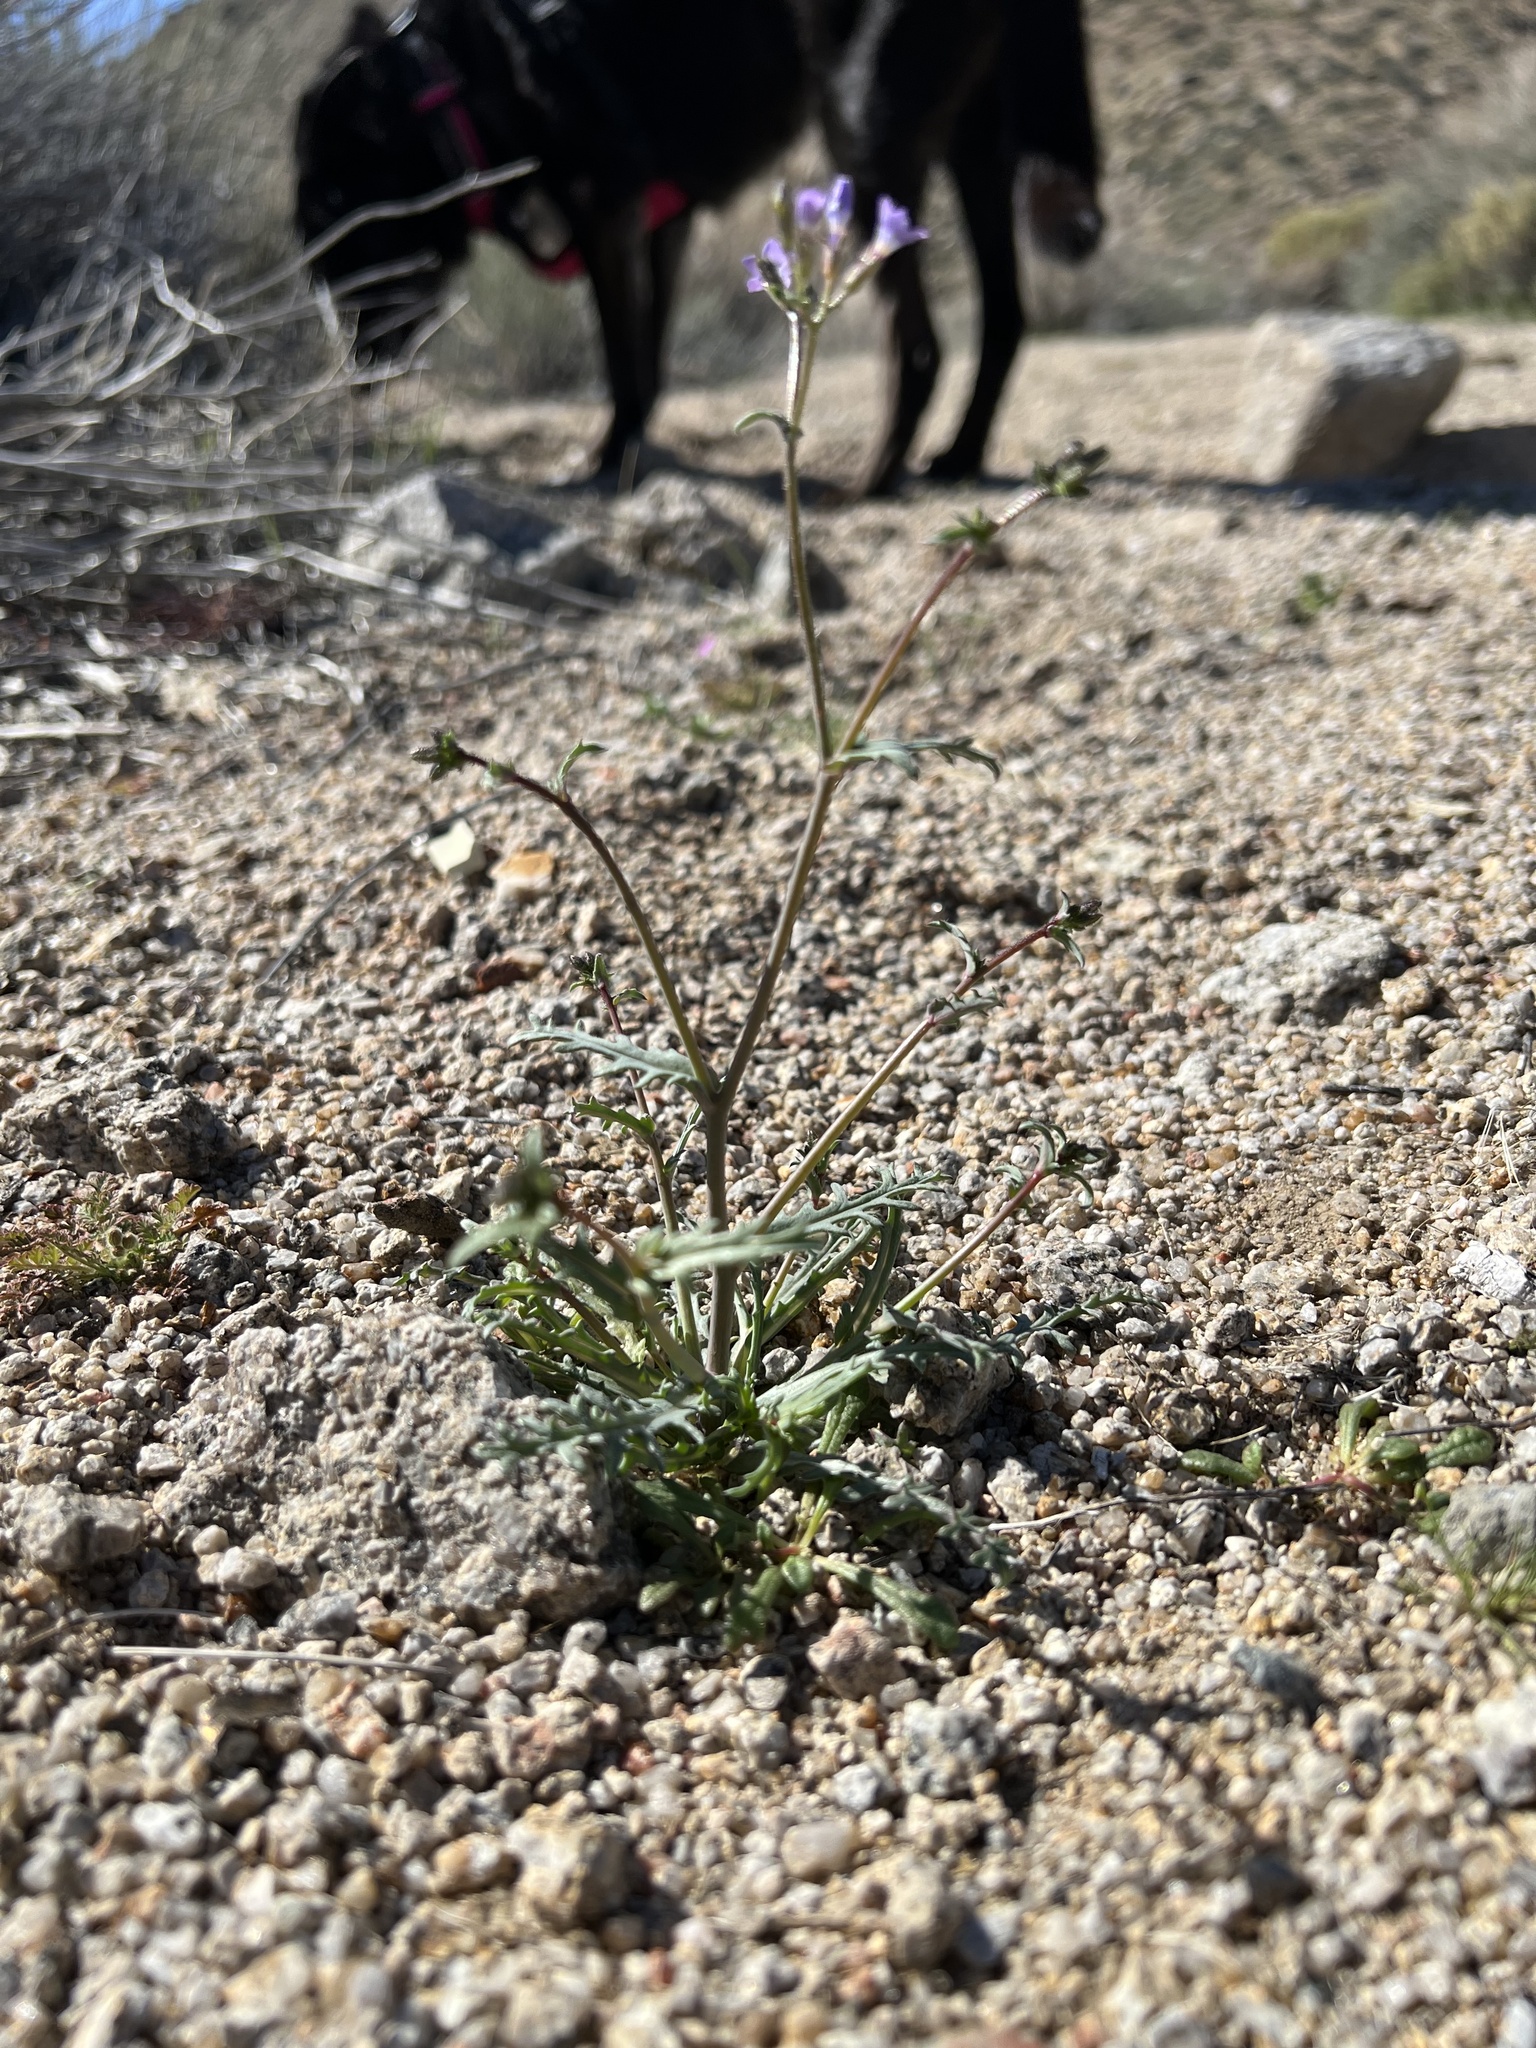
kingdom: Plantae
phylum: Tracheophyta
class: Magnoliopsida
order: Ericales
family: Polemoniaceae
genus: Gilia
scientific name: Gilia sinuata
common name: Rosy gilia
